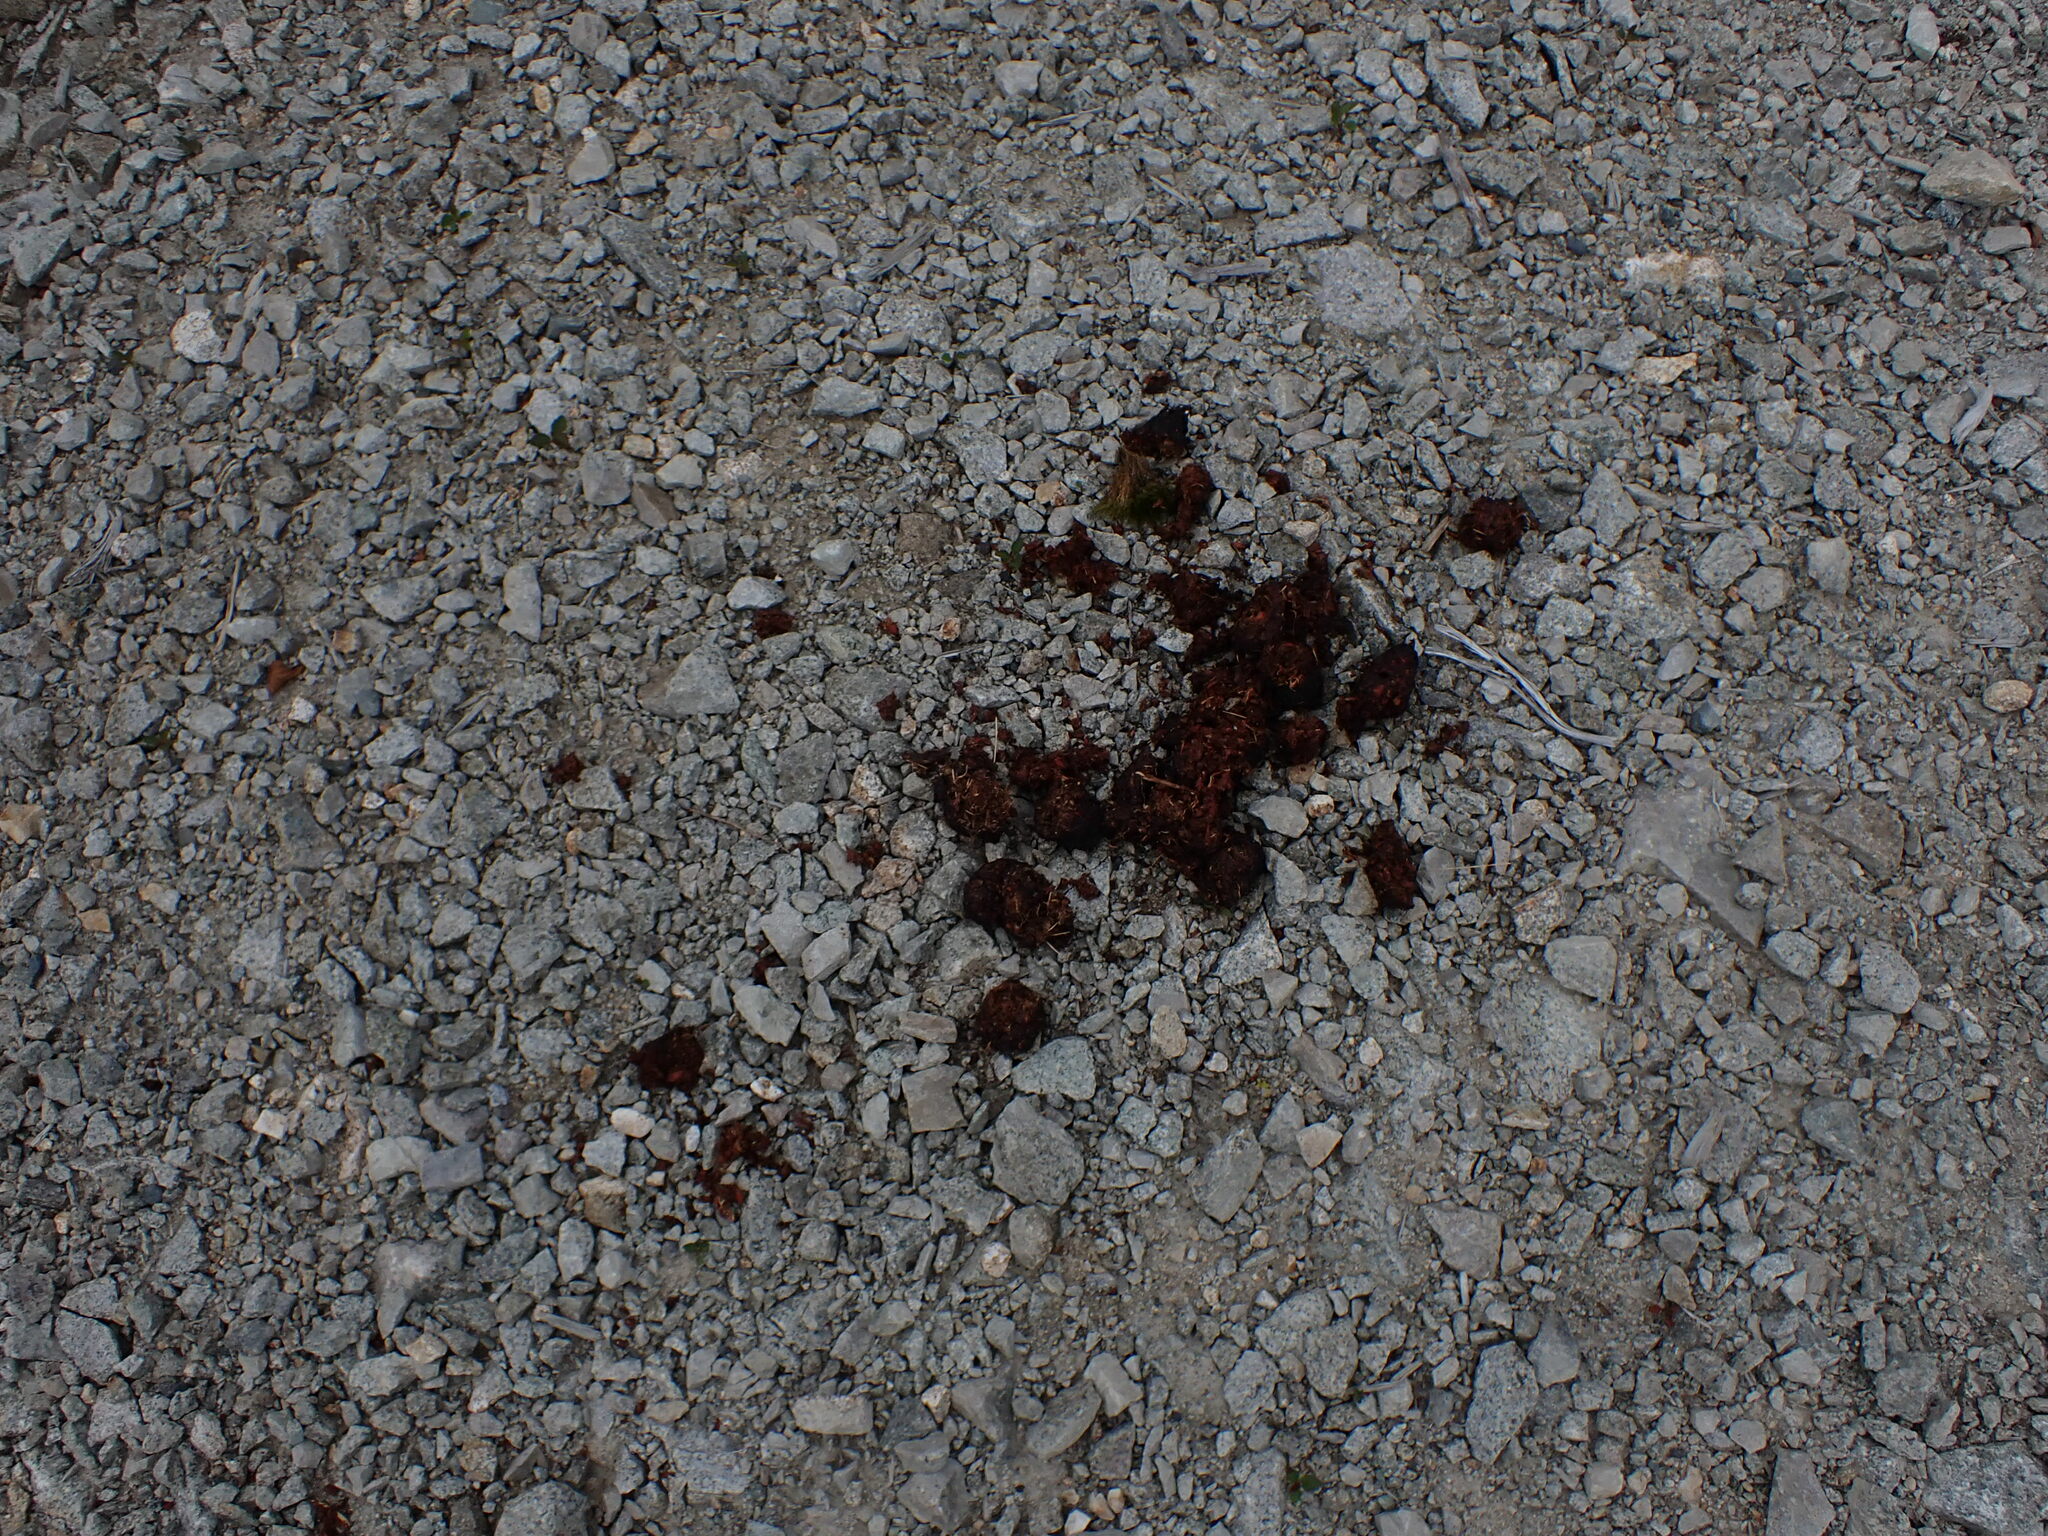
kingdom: Animalia
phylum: Chordata
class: Mammalia
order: Carnivora
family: Ursidae
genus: Ursus
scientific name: Ursus americanus
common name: American black bear
